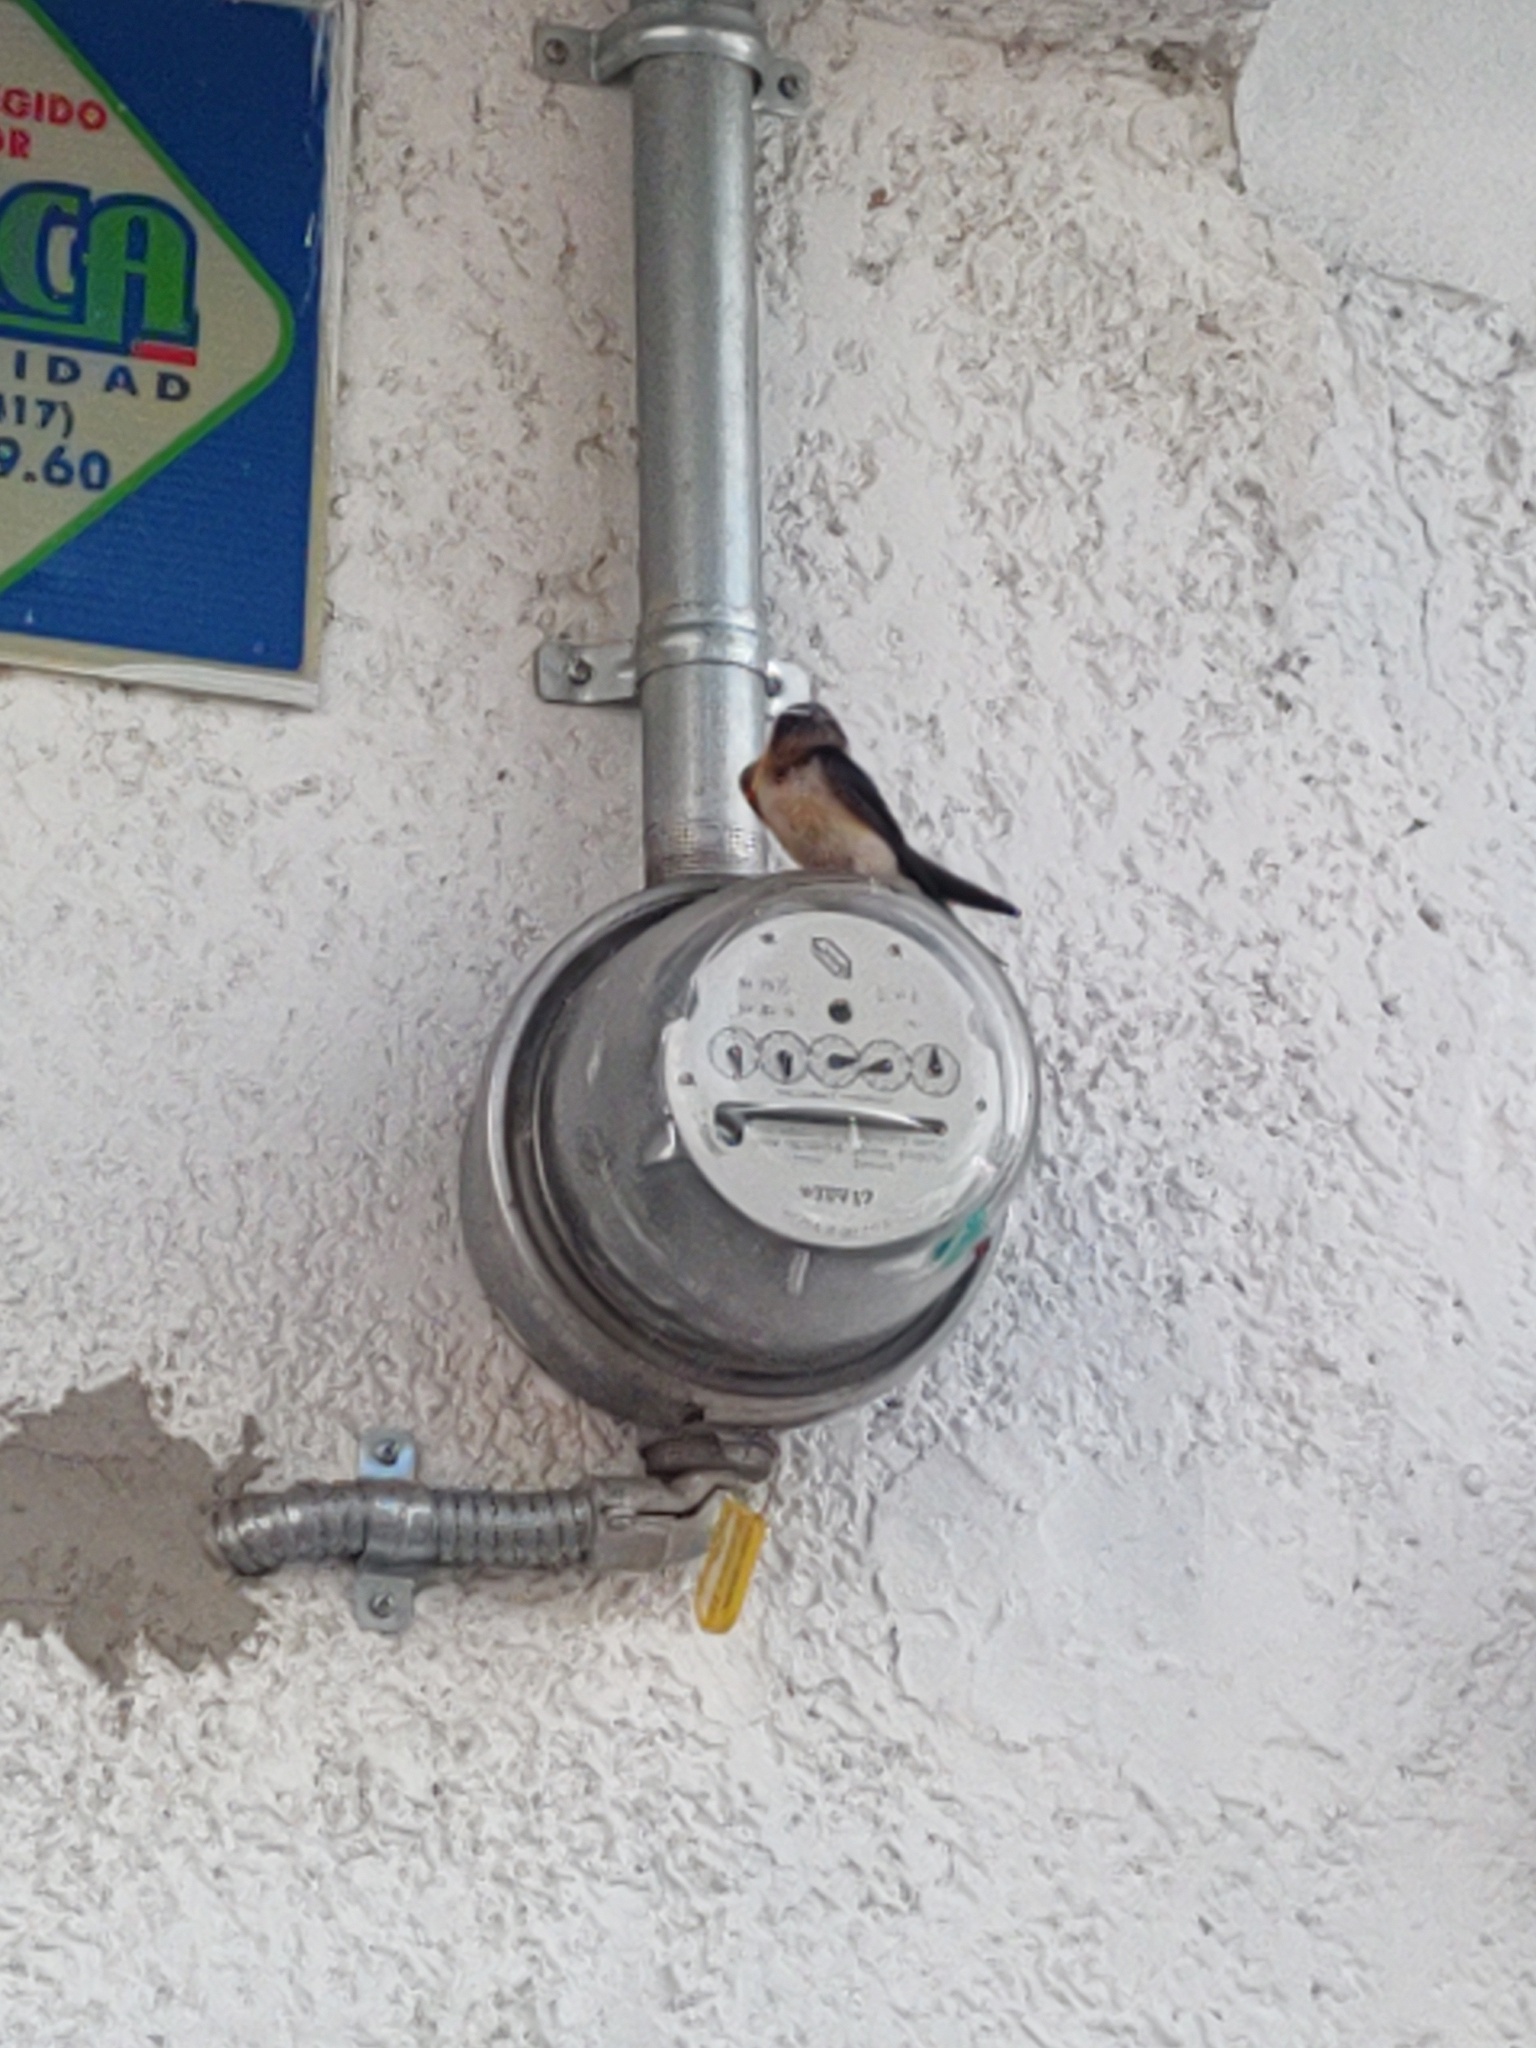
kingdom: Animalia
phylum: Chordata
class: Aves
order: Passeriformes
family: Hirundinidae
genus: Hirundo
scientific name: Hirundo rustica
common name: Barn swallow
